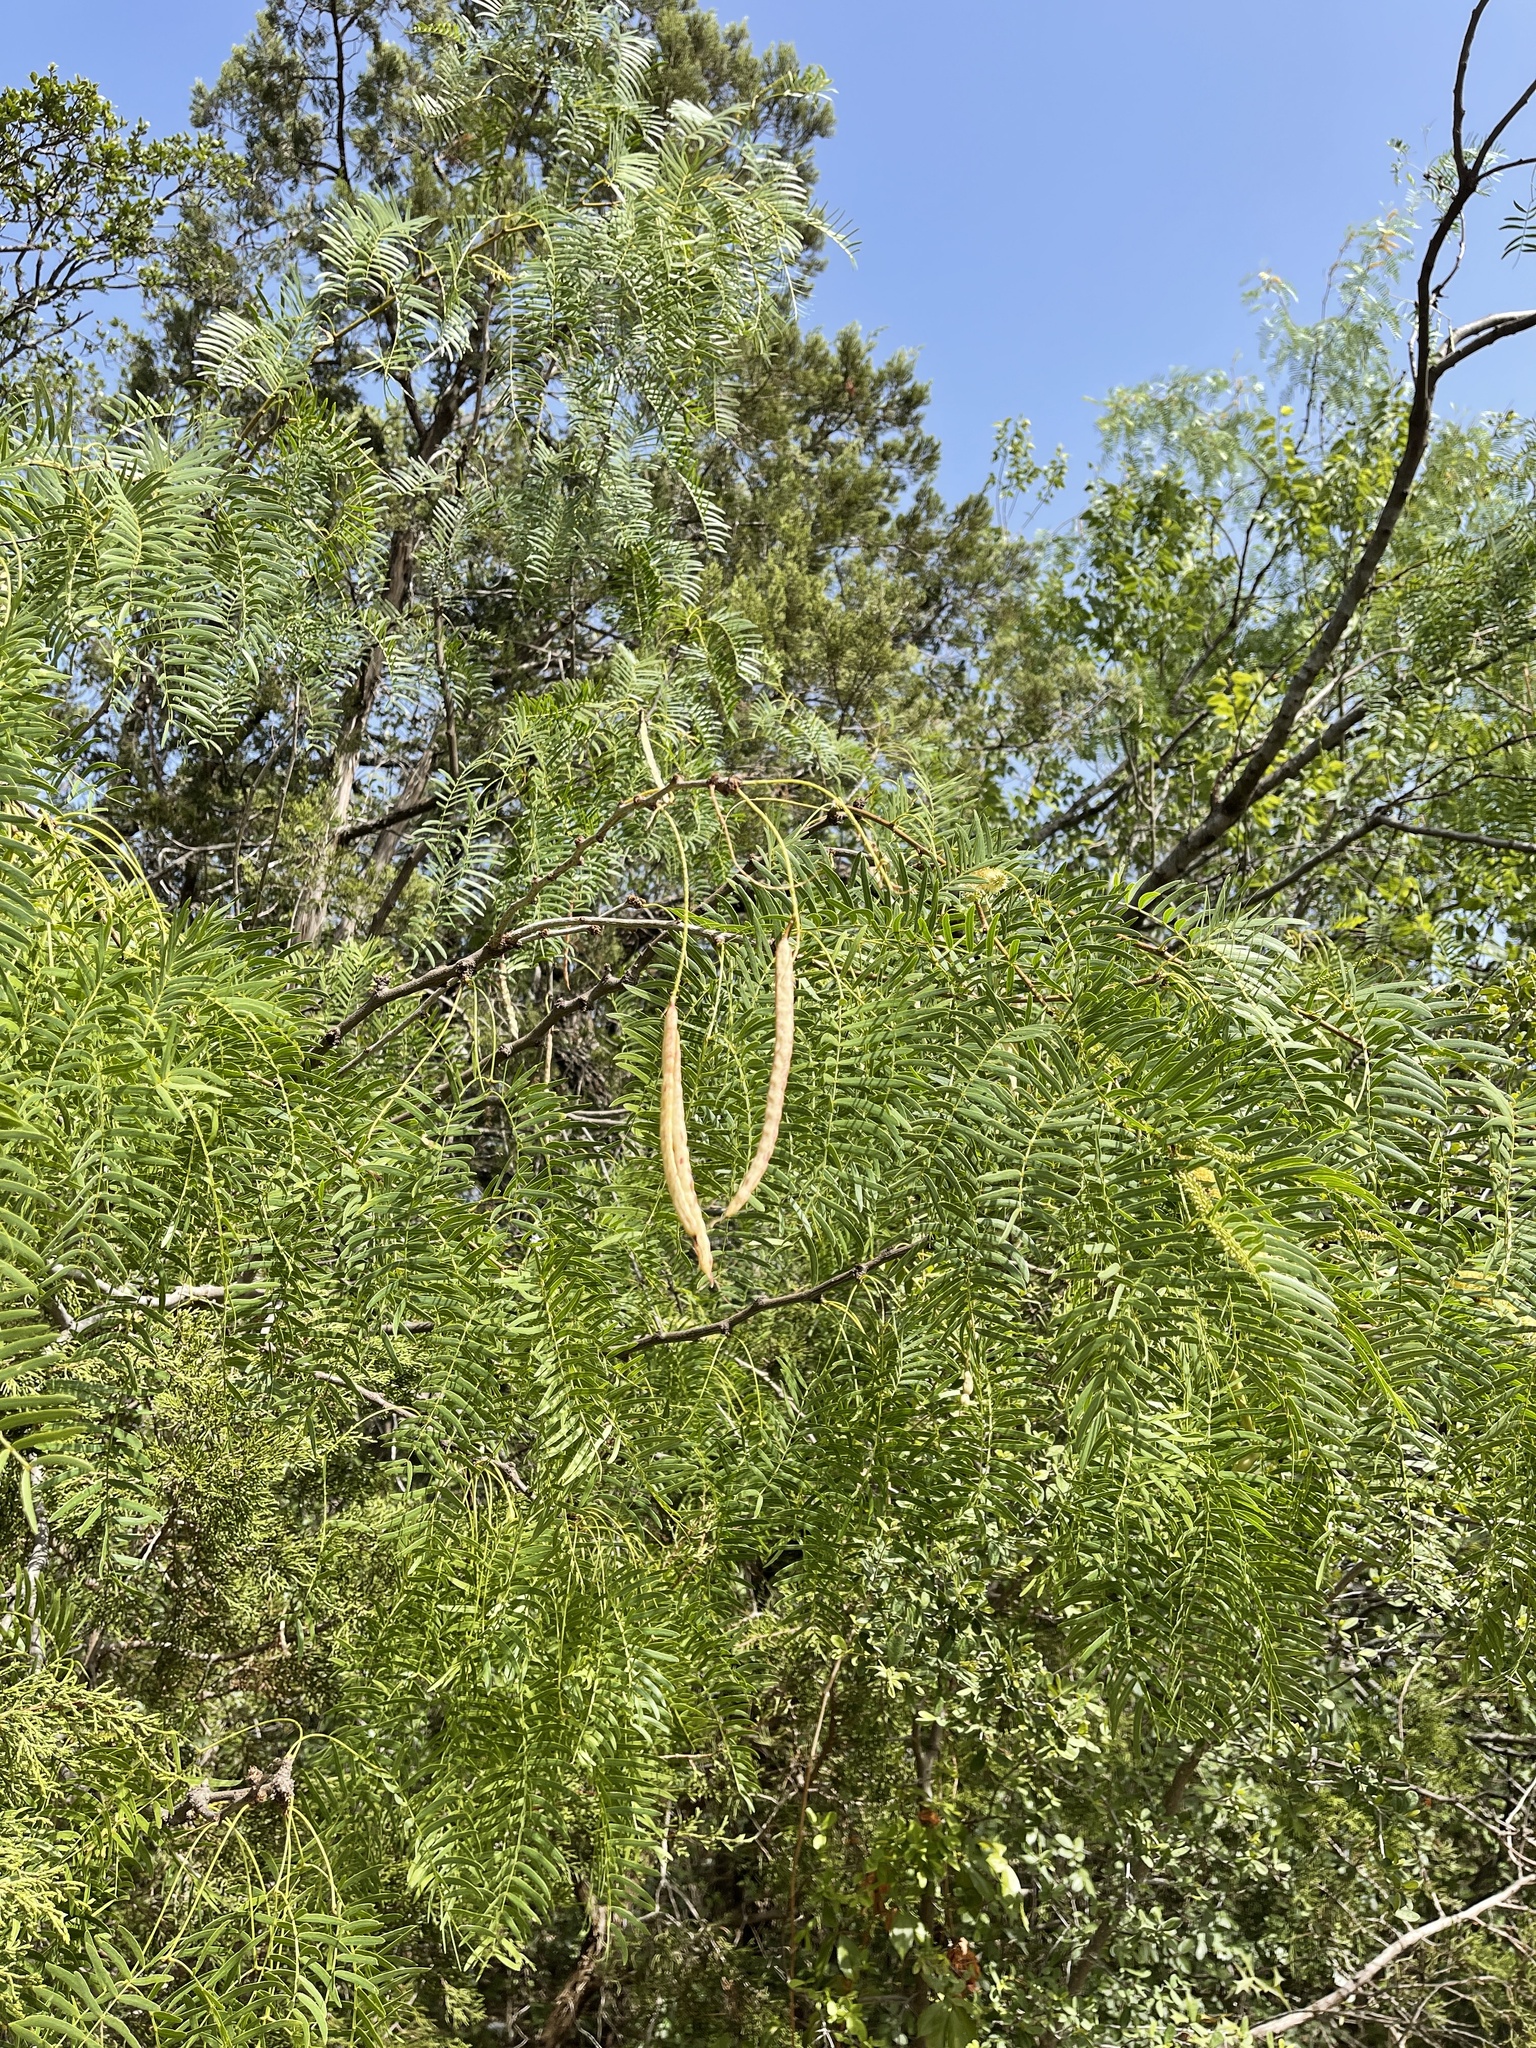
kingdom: Plantae
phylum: Tracheophyta
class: Magnoliopsida
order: Fabales
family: Fabaceae
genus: Prosopis
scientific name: Prosopis glandulosa
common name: Honey mesquite
